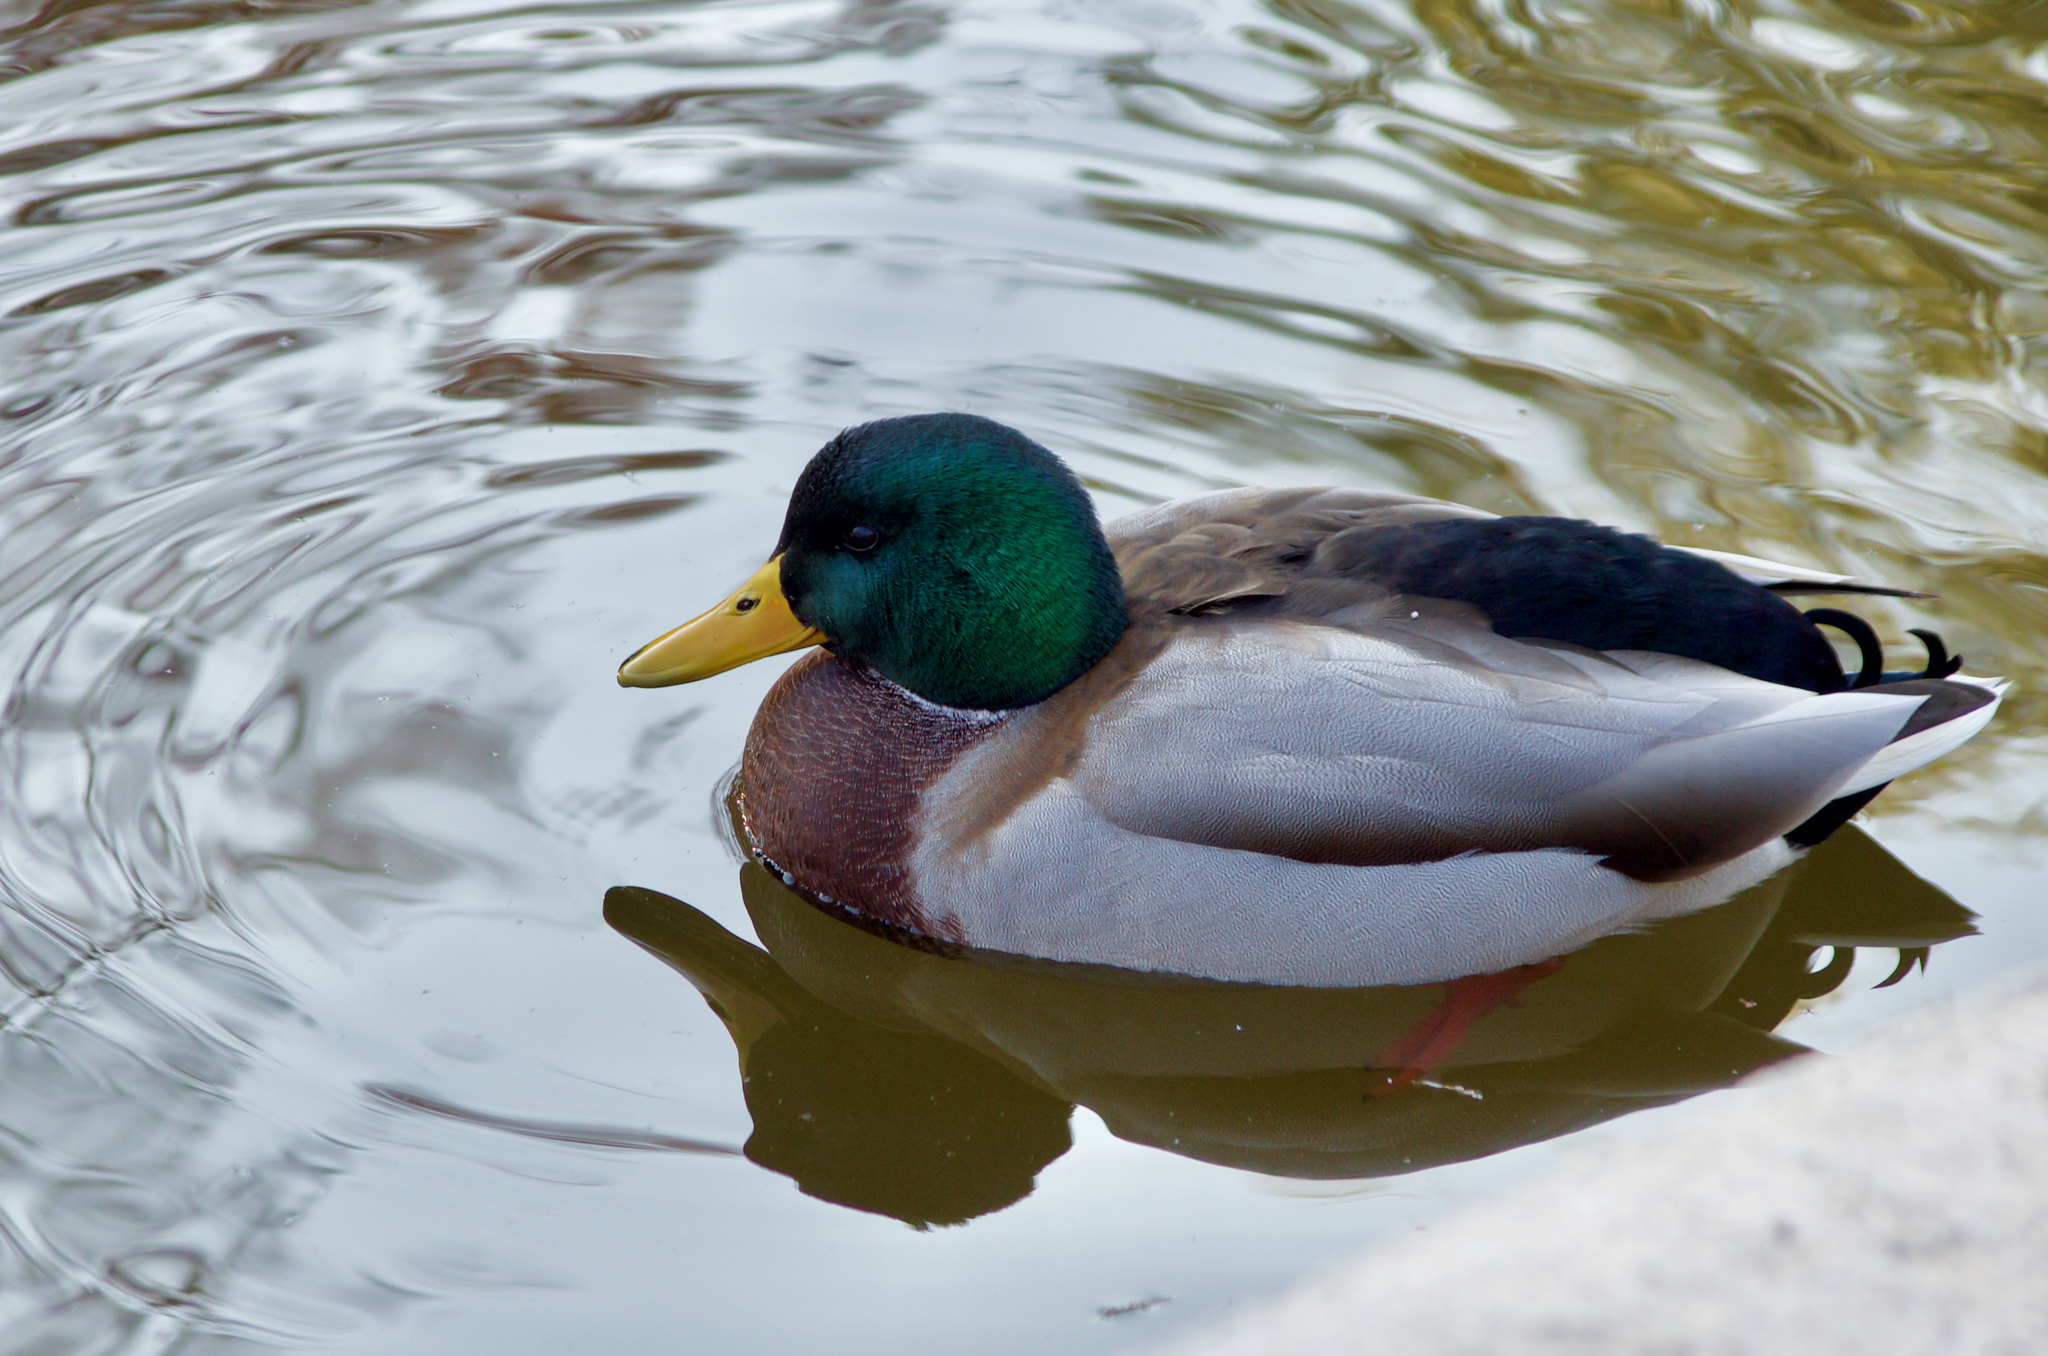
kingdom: Animalia
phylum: Chordata
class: Aves
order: Anseriformes
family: Anatidae
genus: Anas
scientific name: Anas platyrhynchos
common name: Mallard
